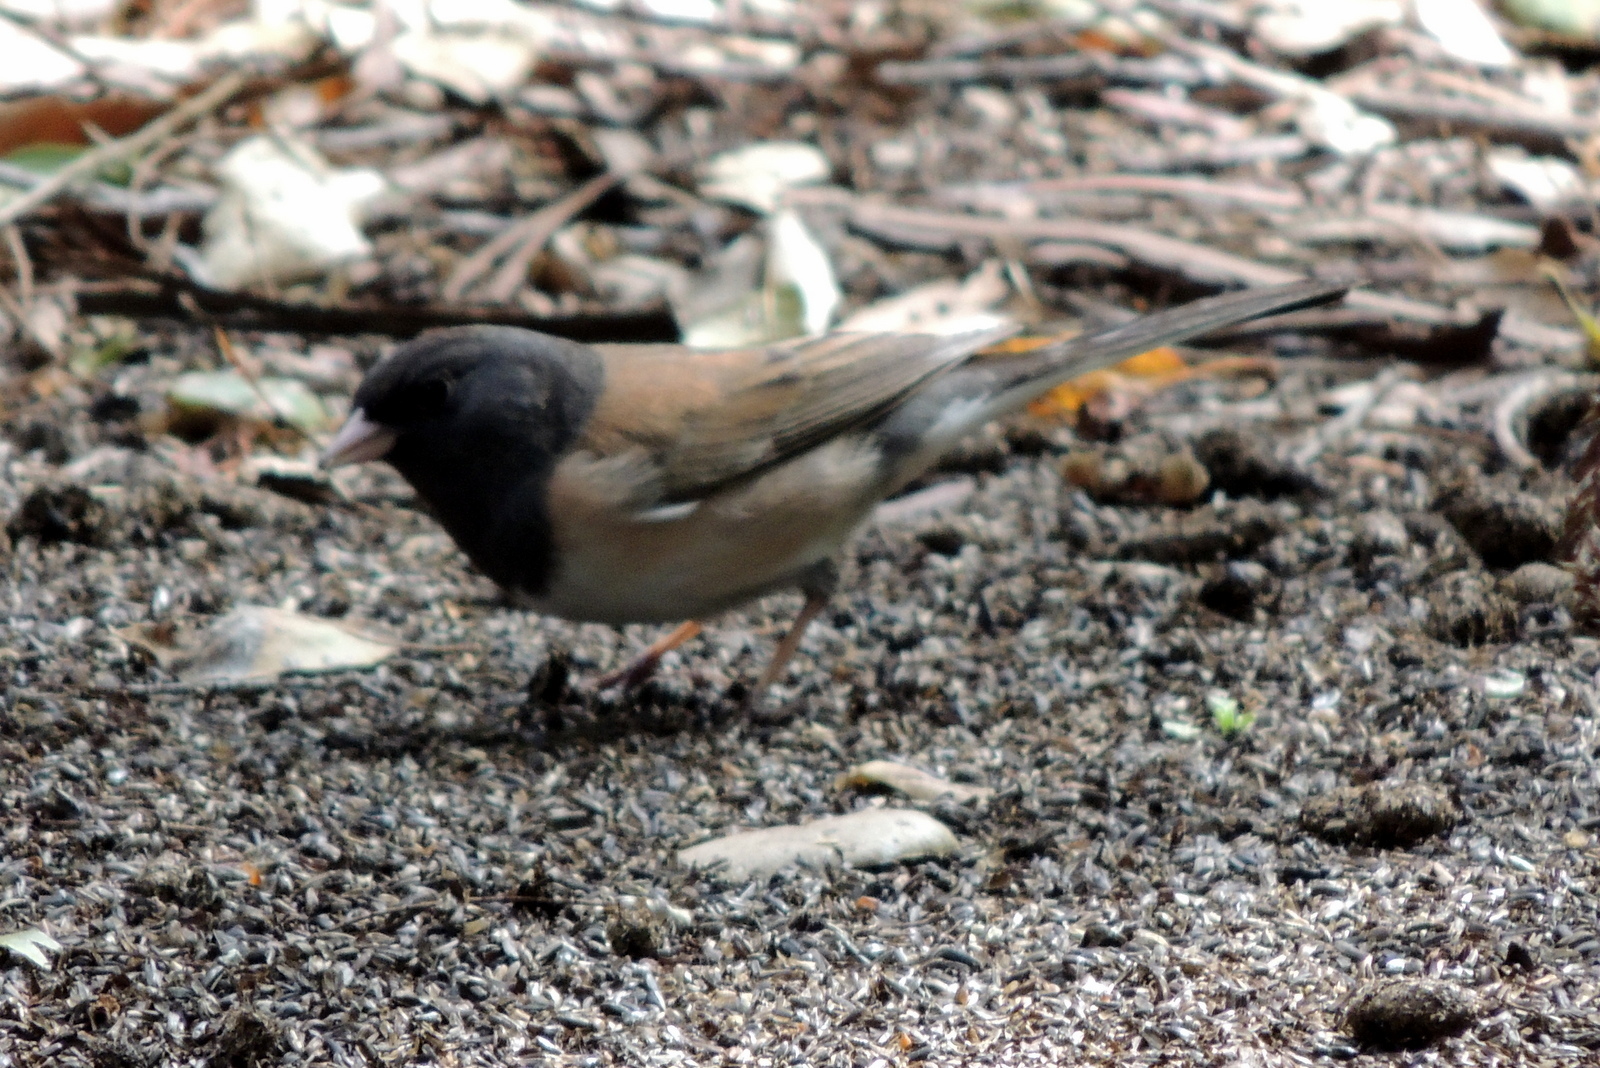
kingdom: Animalia
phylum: Chordata
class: Aves
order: Passeriformes
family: Passerellidae
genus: Junco
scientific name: Junco hyemalis
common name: Dark-eyed junco
